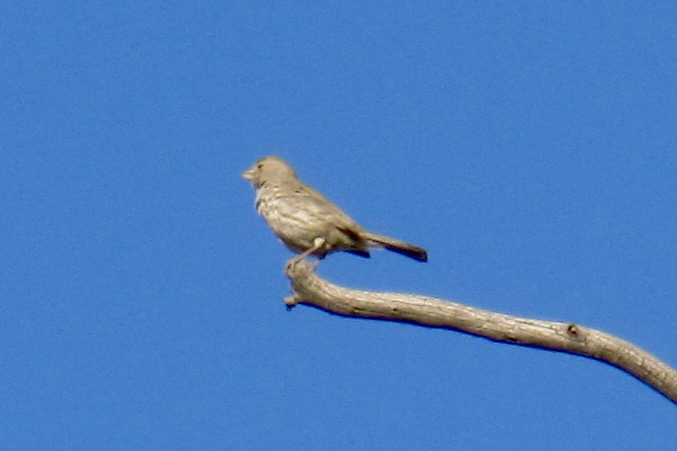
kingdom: Animalia
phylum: Chordata
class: Aves
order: Passeriformes
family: Fringillidae
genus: Haemorhous
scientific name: Haemorhous mexicanus
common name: House finch
